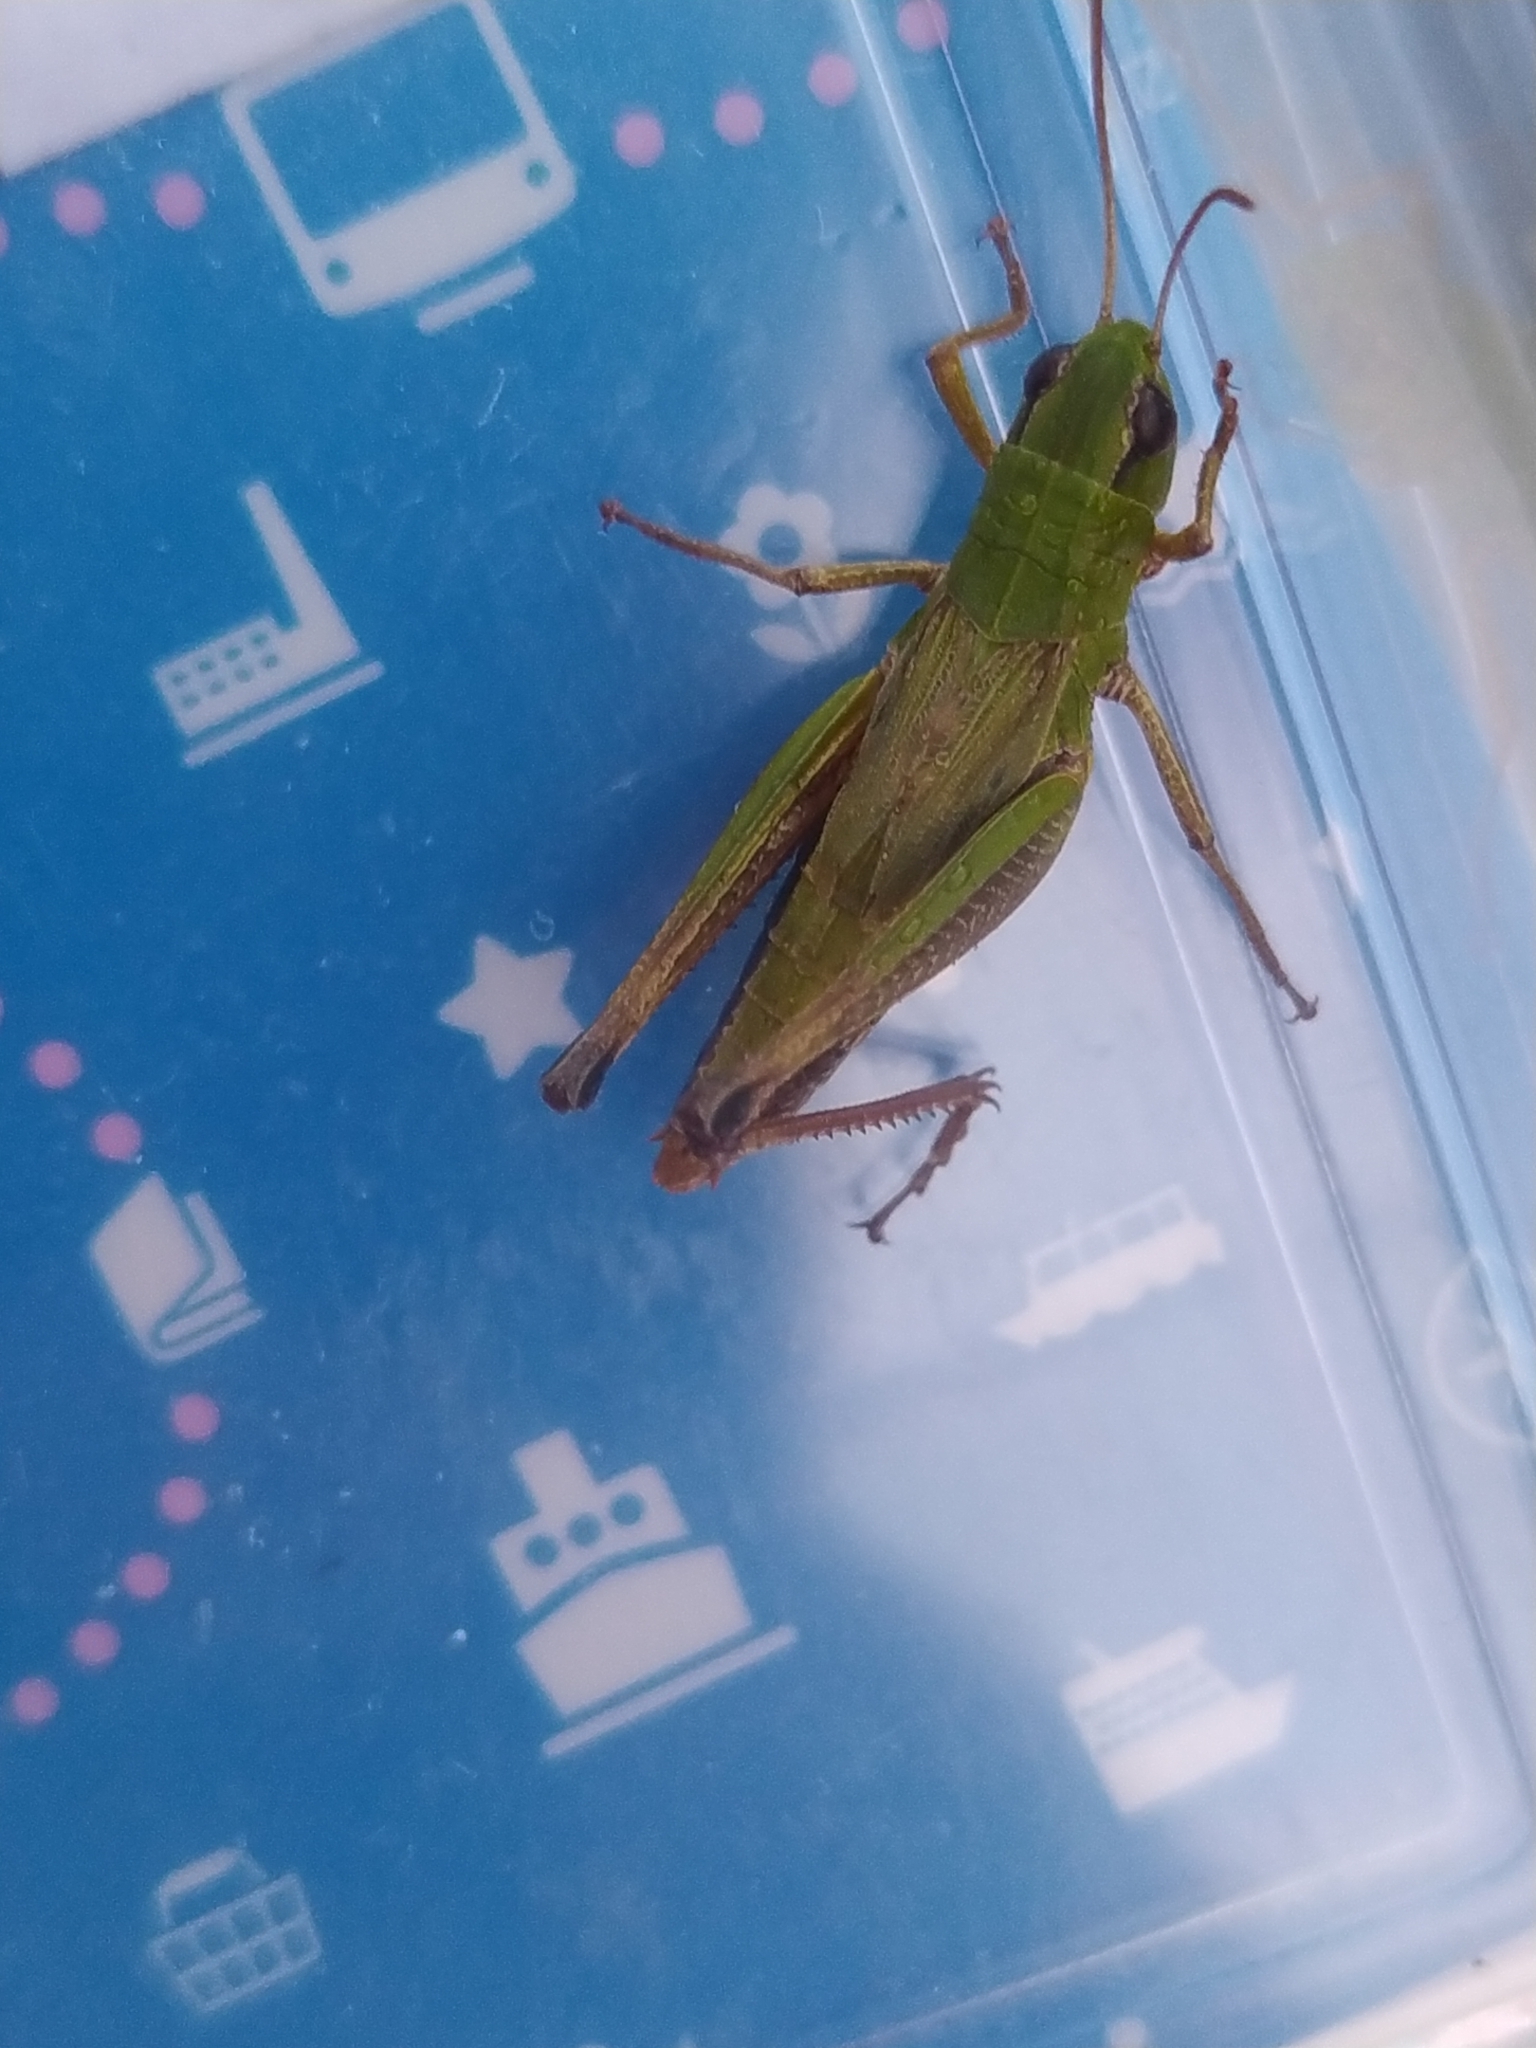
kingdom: Animalia
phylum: Arthropoda
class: Insecta
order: Orthoptera
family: Acrididae
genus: Pseudochorthippus
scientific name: Pseudochorthippus parallelus
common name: Meadow grasshopper
